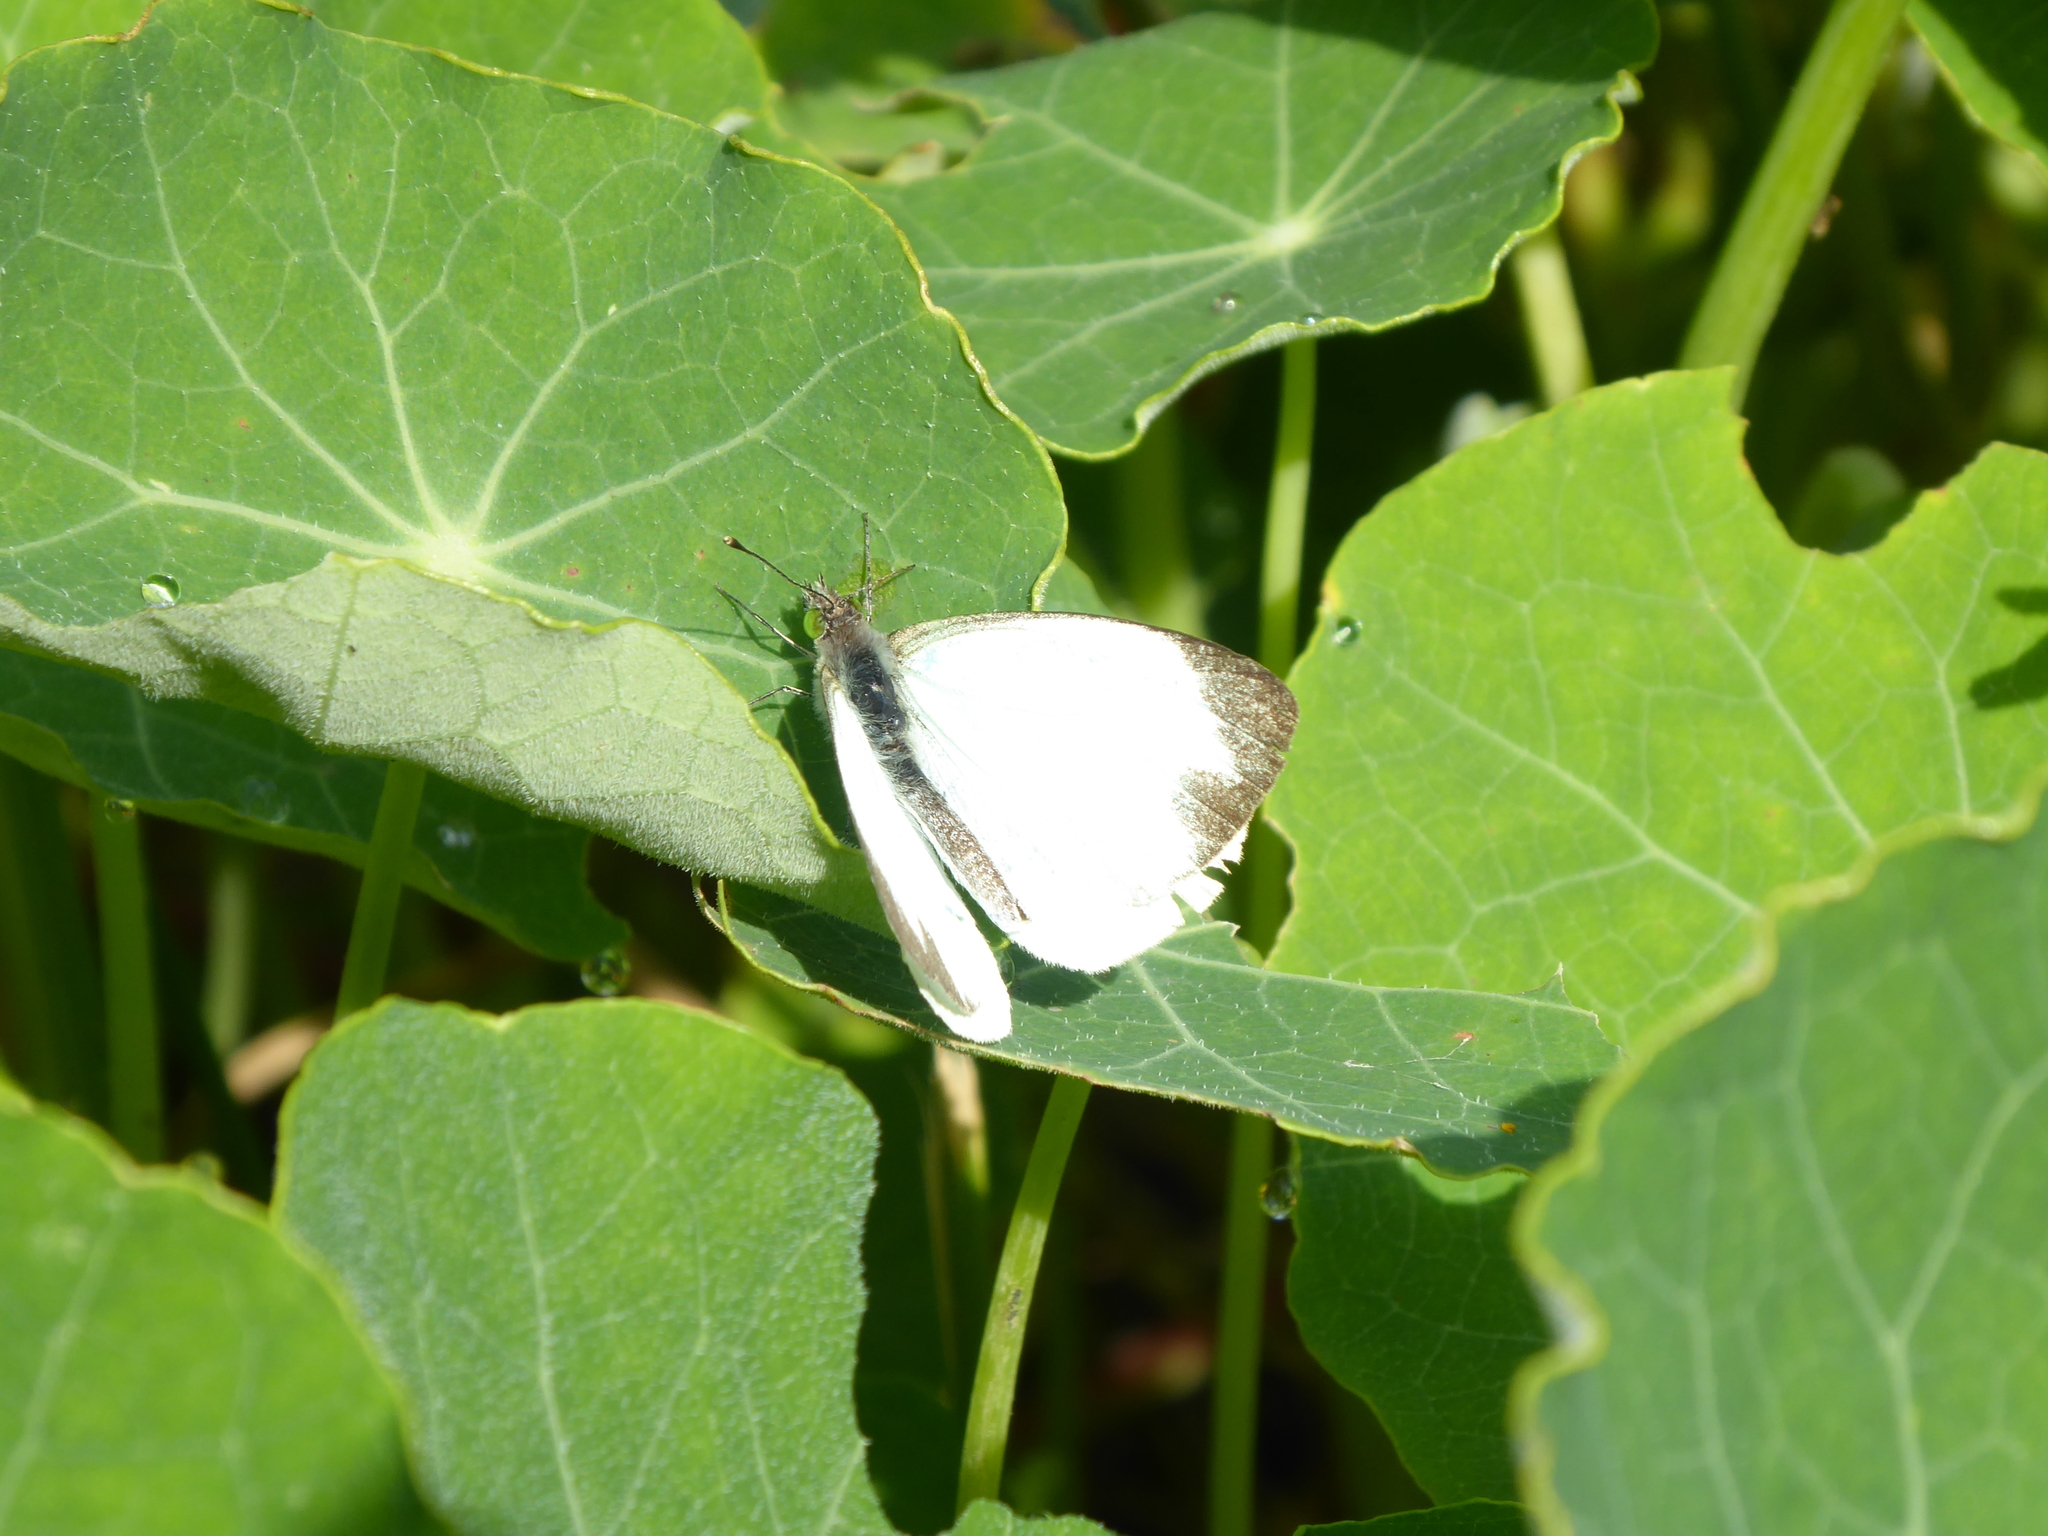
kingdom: Animalia
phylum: Arthropoda
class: Insecta
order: Lepidoptera
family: Pieridae
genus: Leptophobia
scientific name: Leptophobia aripa
